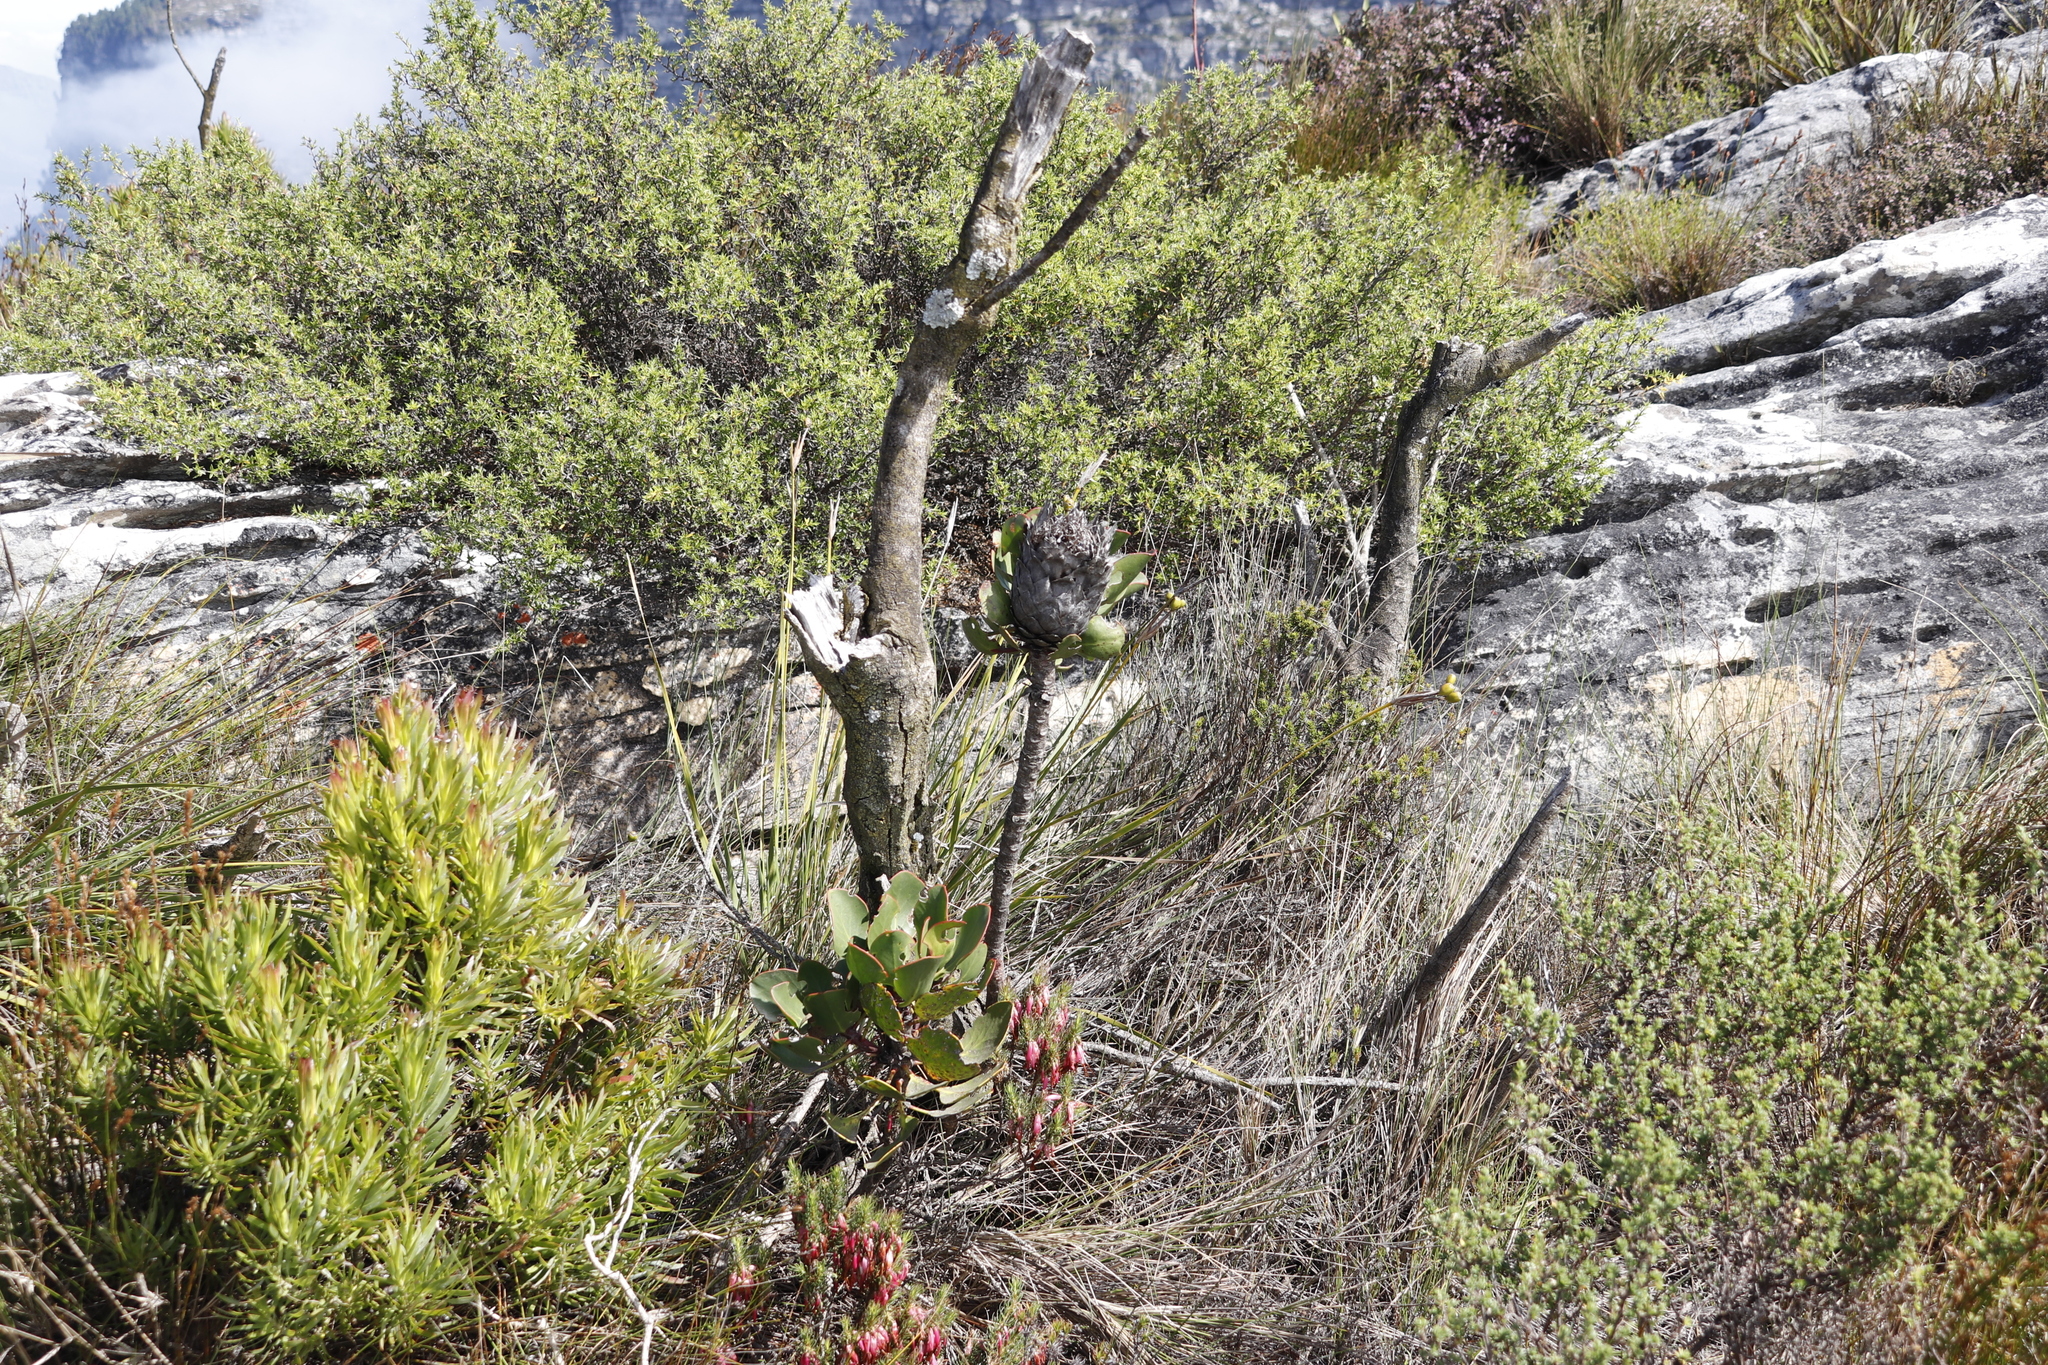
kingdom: Plantae
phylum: Tracheophyta
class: Magnoliopsida
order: Proteales
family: Proteaceae
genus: Protea
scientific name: Protea speciosa
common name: Brown-beard sugarbush
